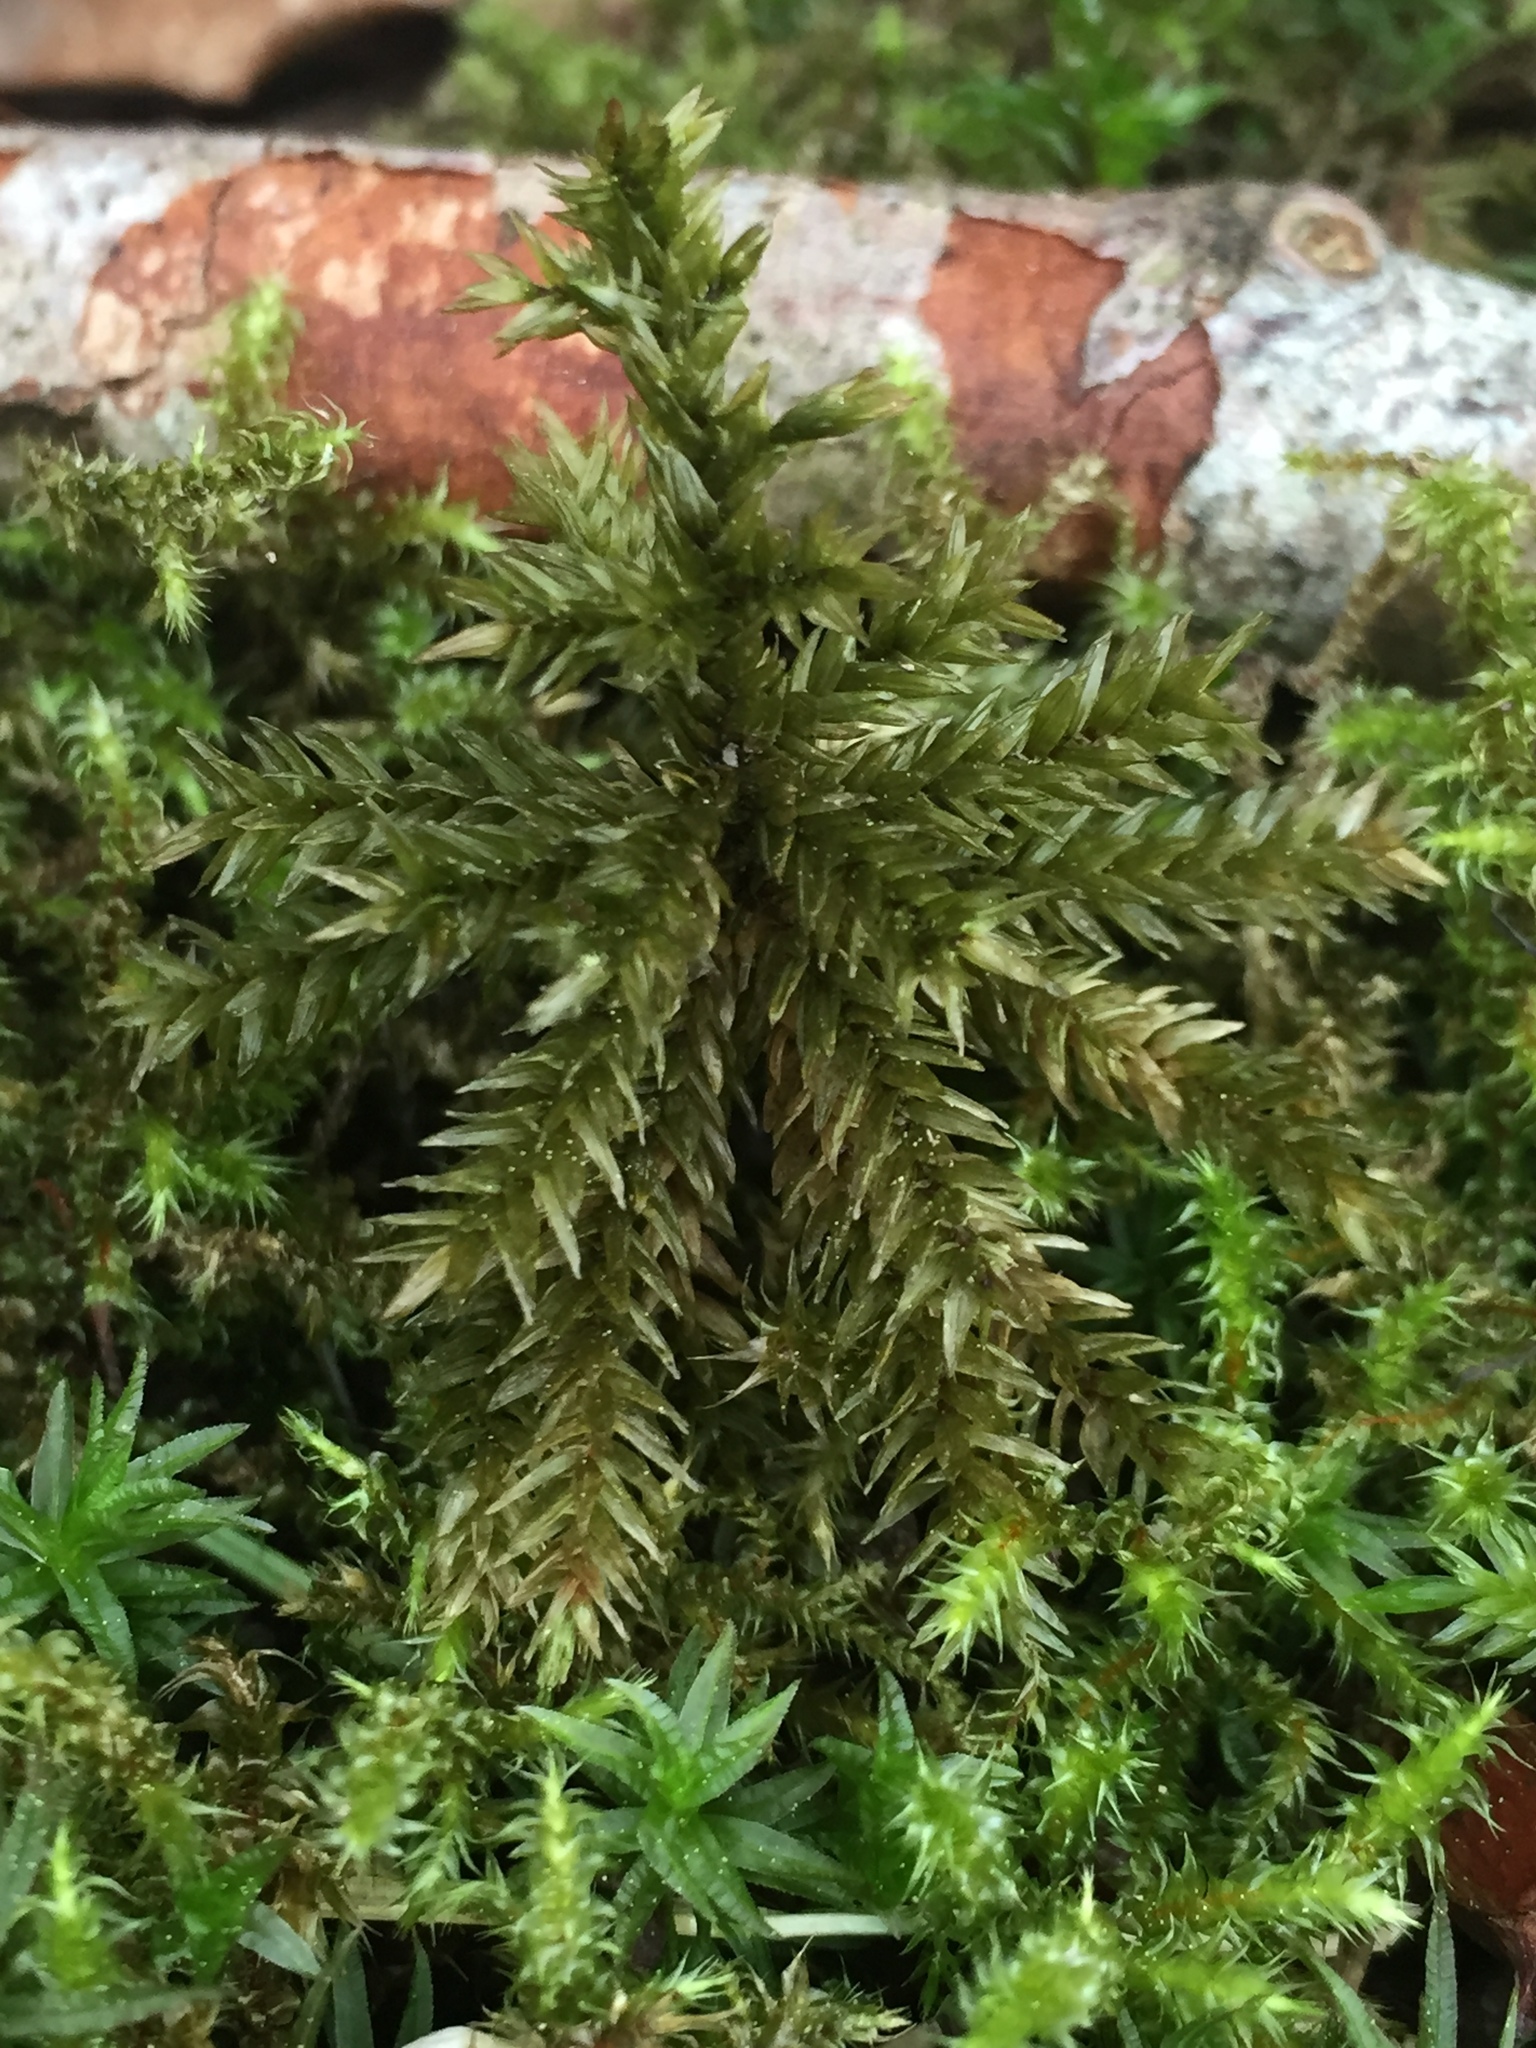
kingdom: Plantae
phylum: Bryophyta
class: Bryopsida
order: Hypnales
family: Climaciaceae
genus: Climacium
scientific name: Climacium dendroides
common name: Northern tree moss
